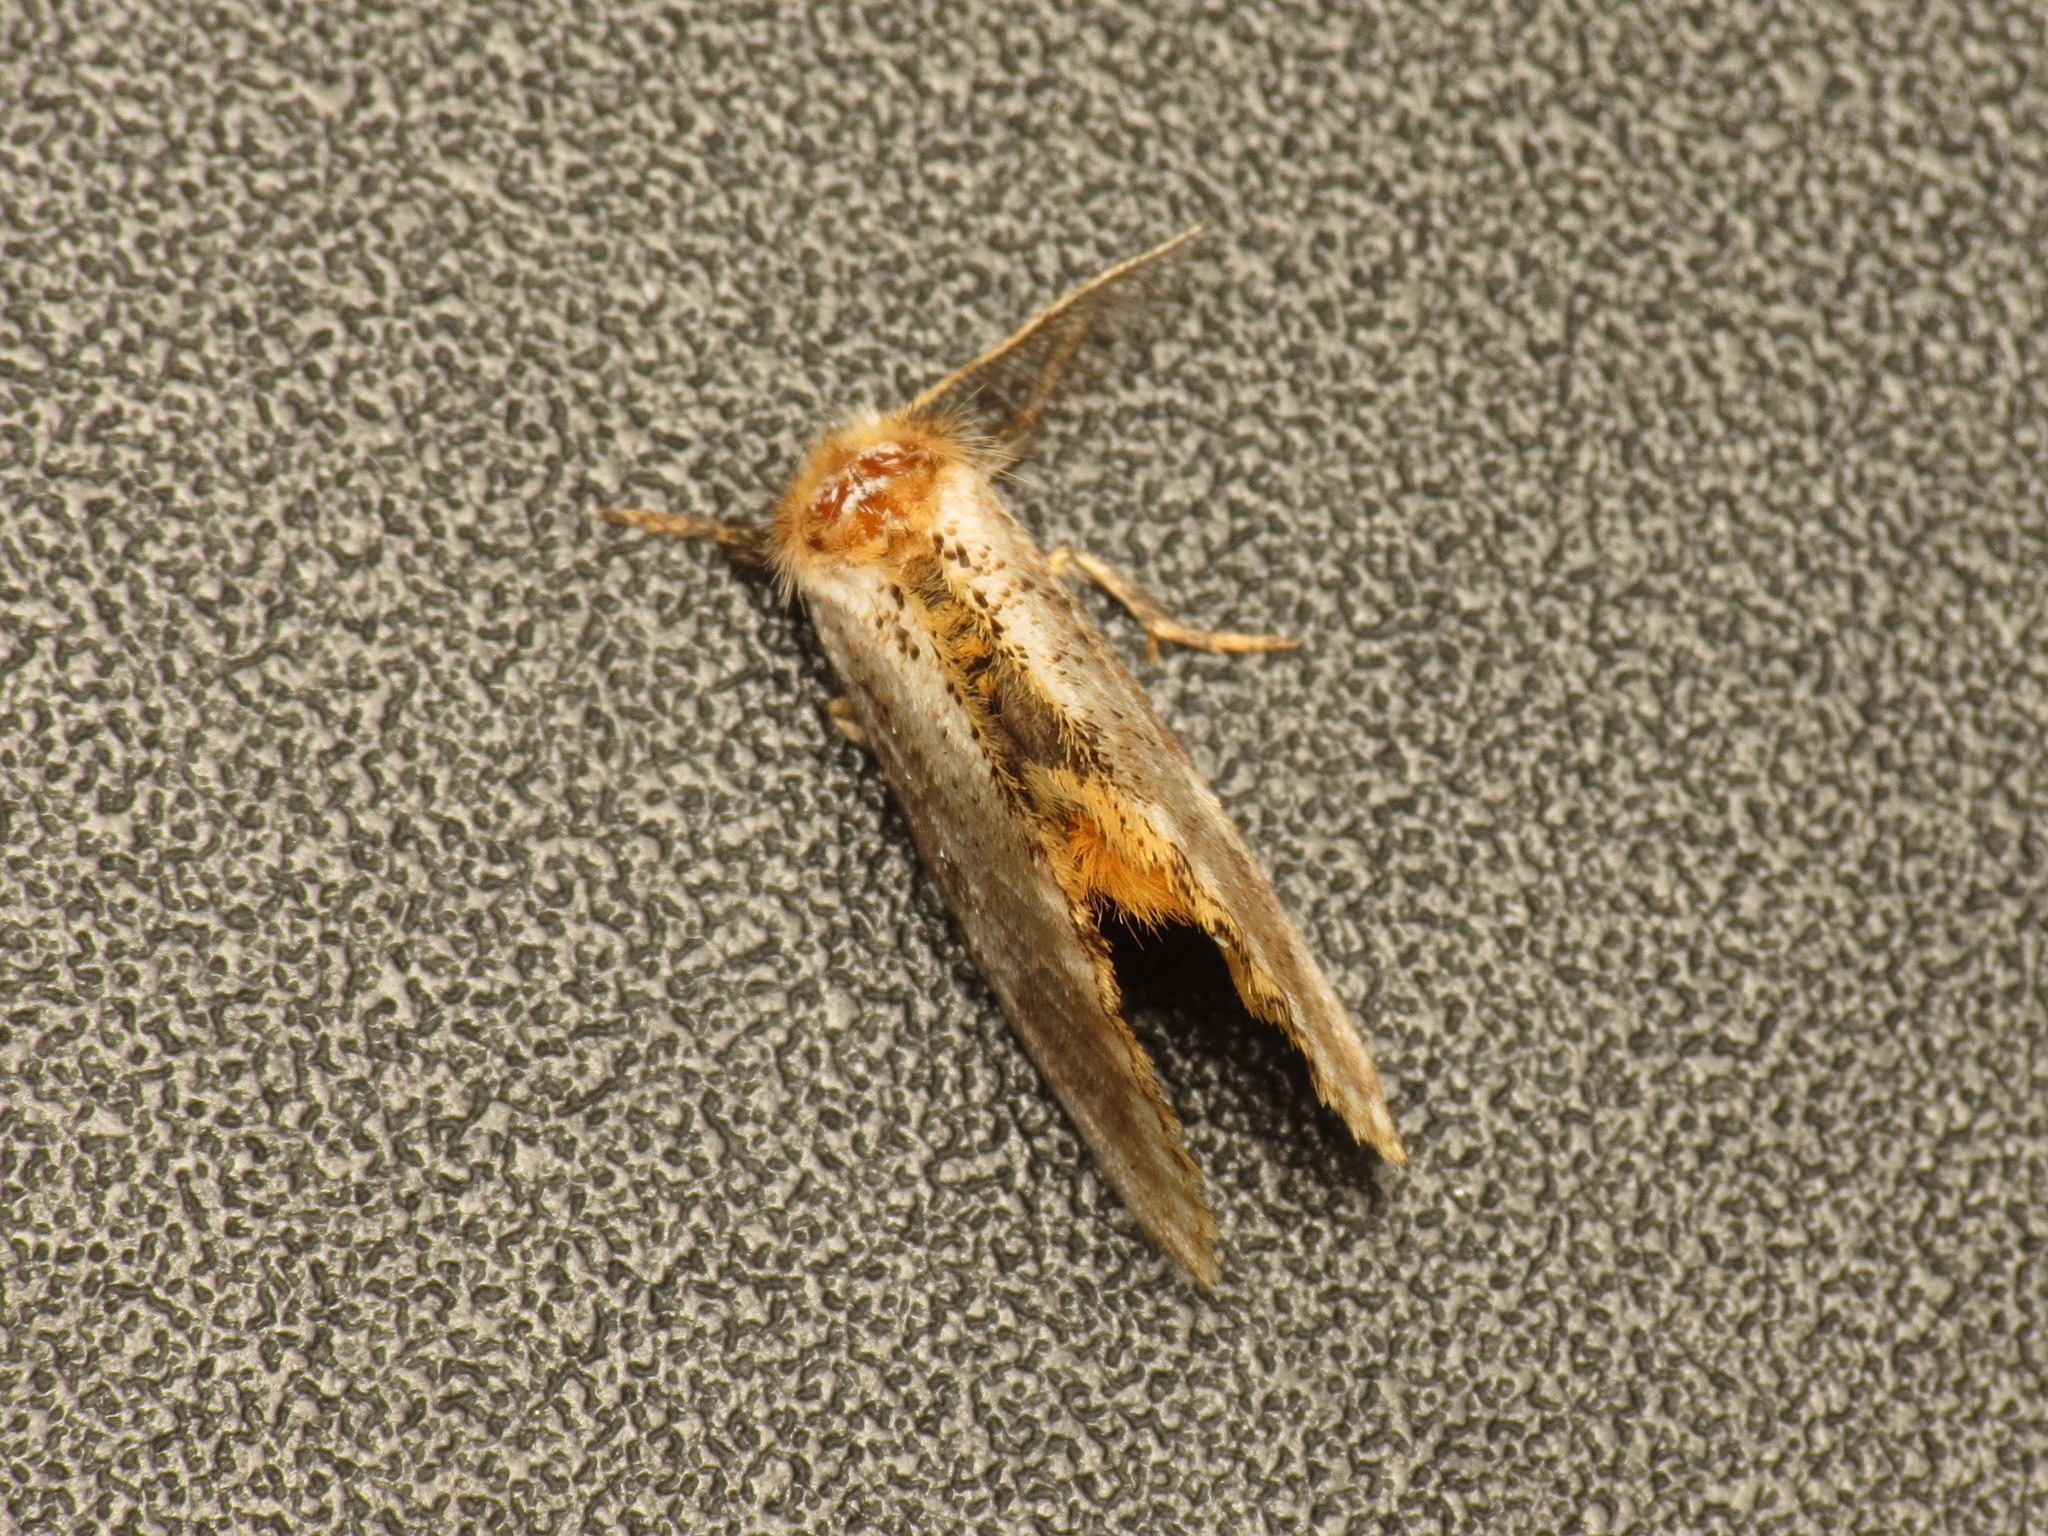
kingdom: Animalia
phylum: Arthropoda
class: Insecta
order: Lepidoptera
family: Notodontidae
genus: Epicoma
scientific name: Epicoma protrahens
